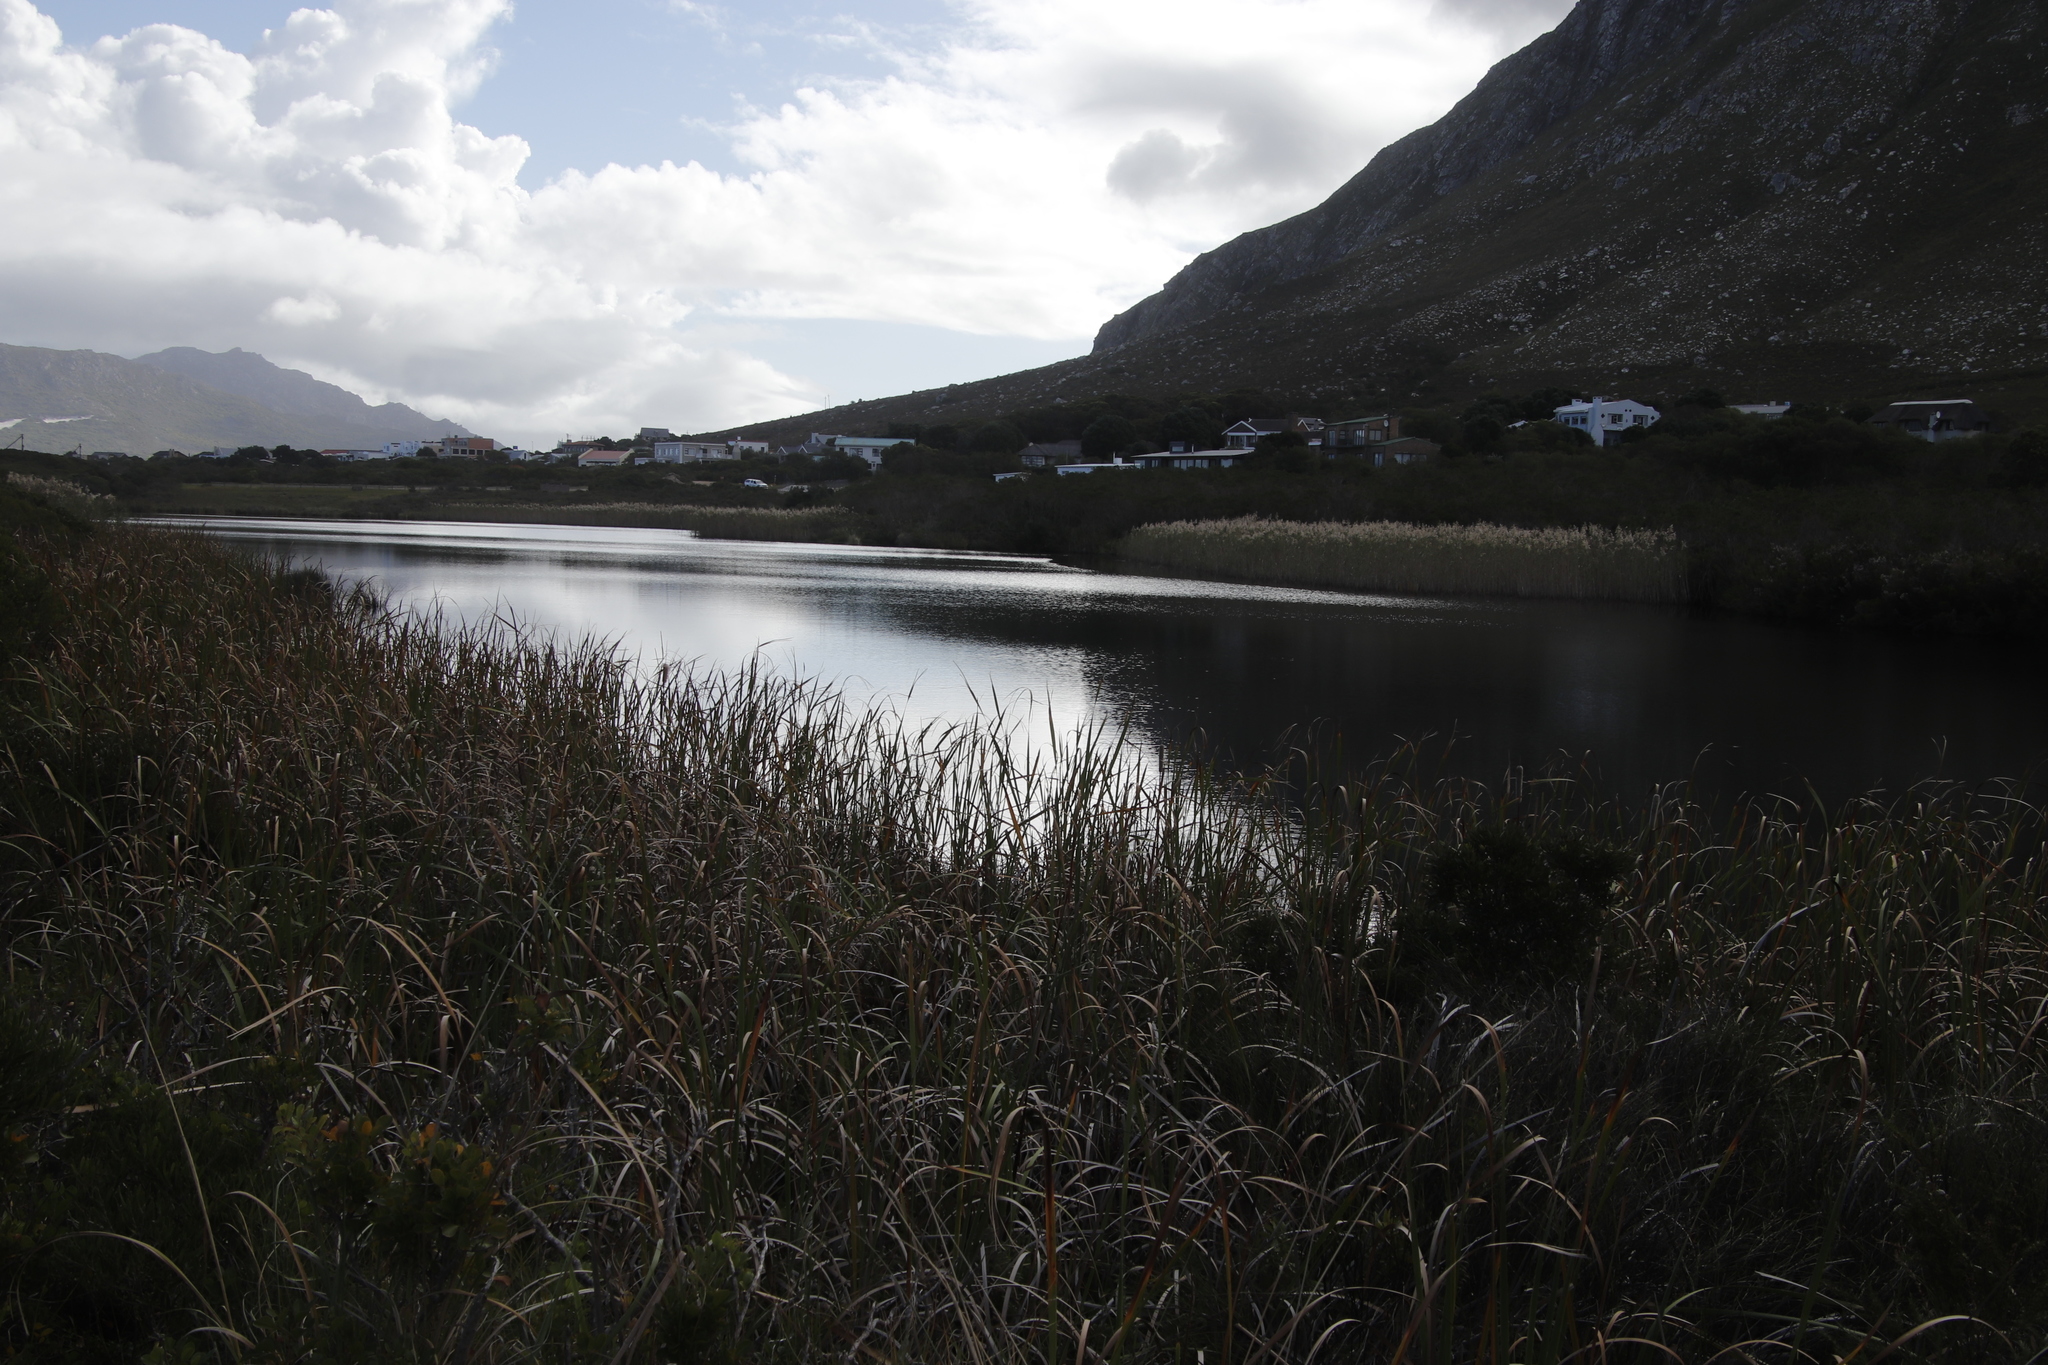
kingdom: Plantae
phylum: Tracheophyta
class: Liliopsida
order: Poales
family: Poaceae
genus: Phragmites
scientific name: Phragmites australis
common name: Common reed
